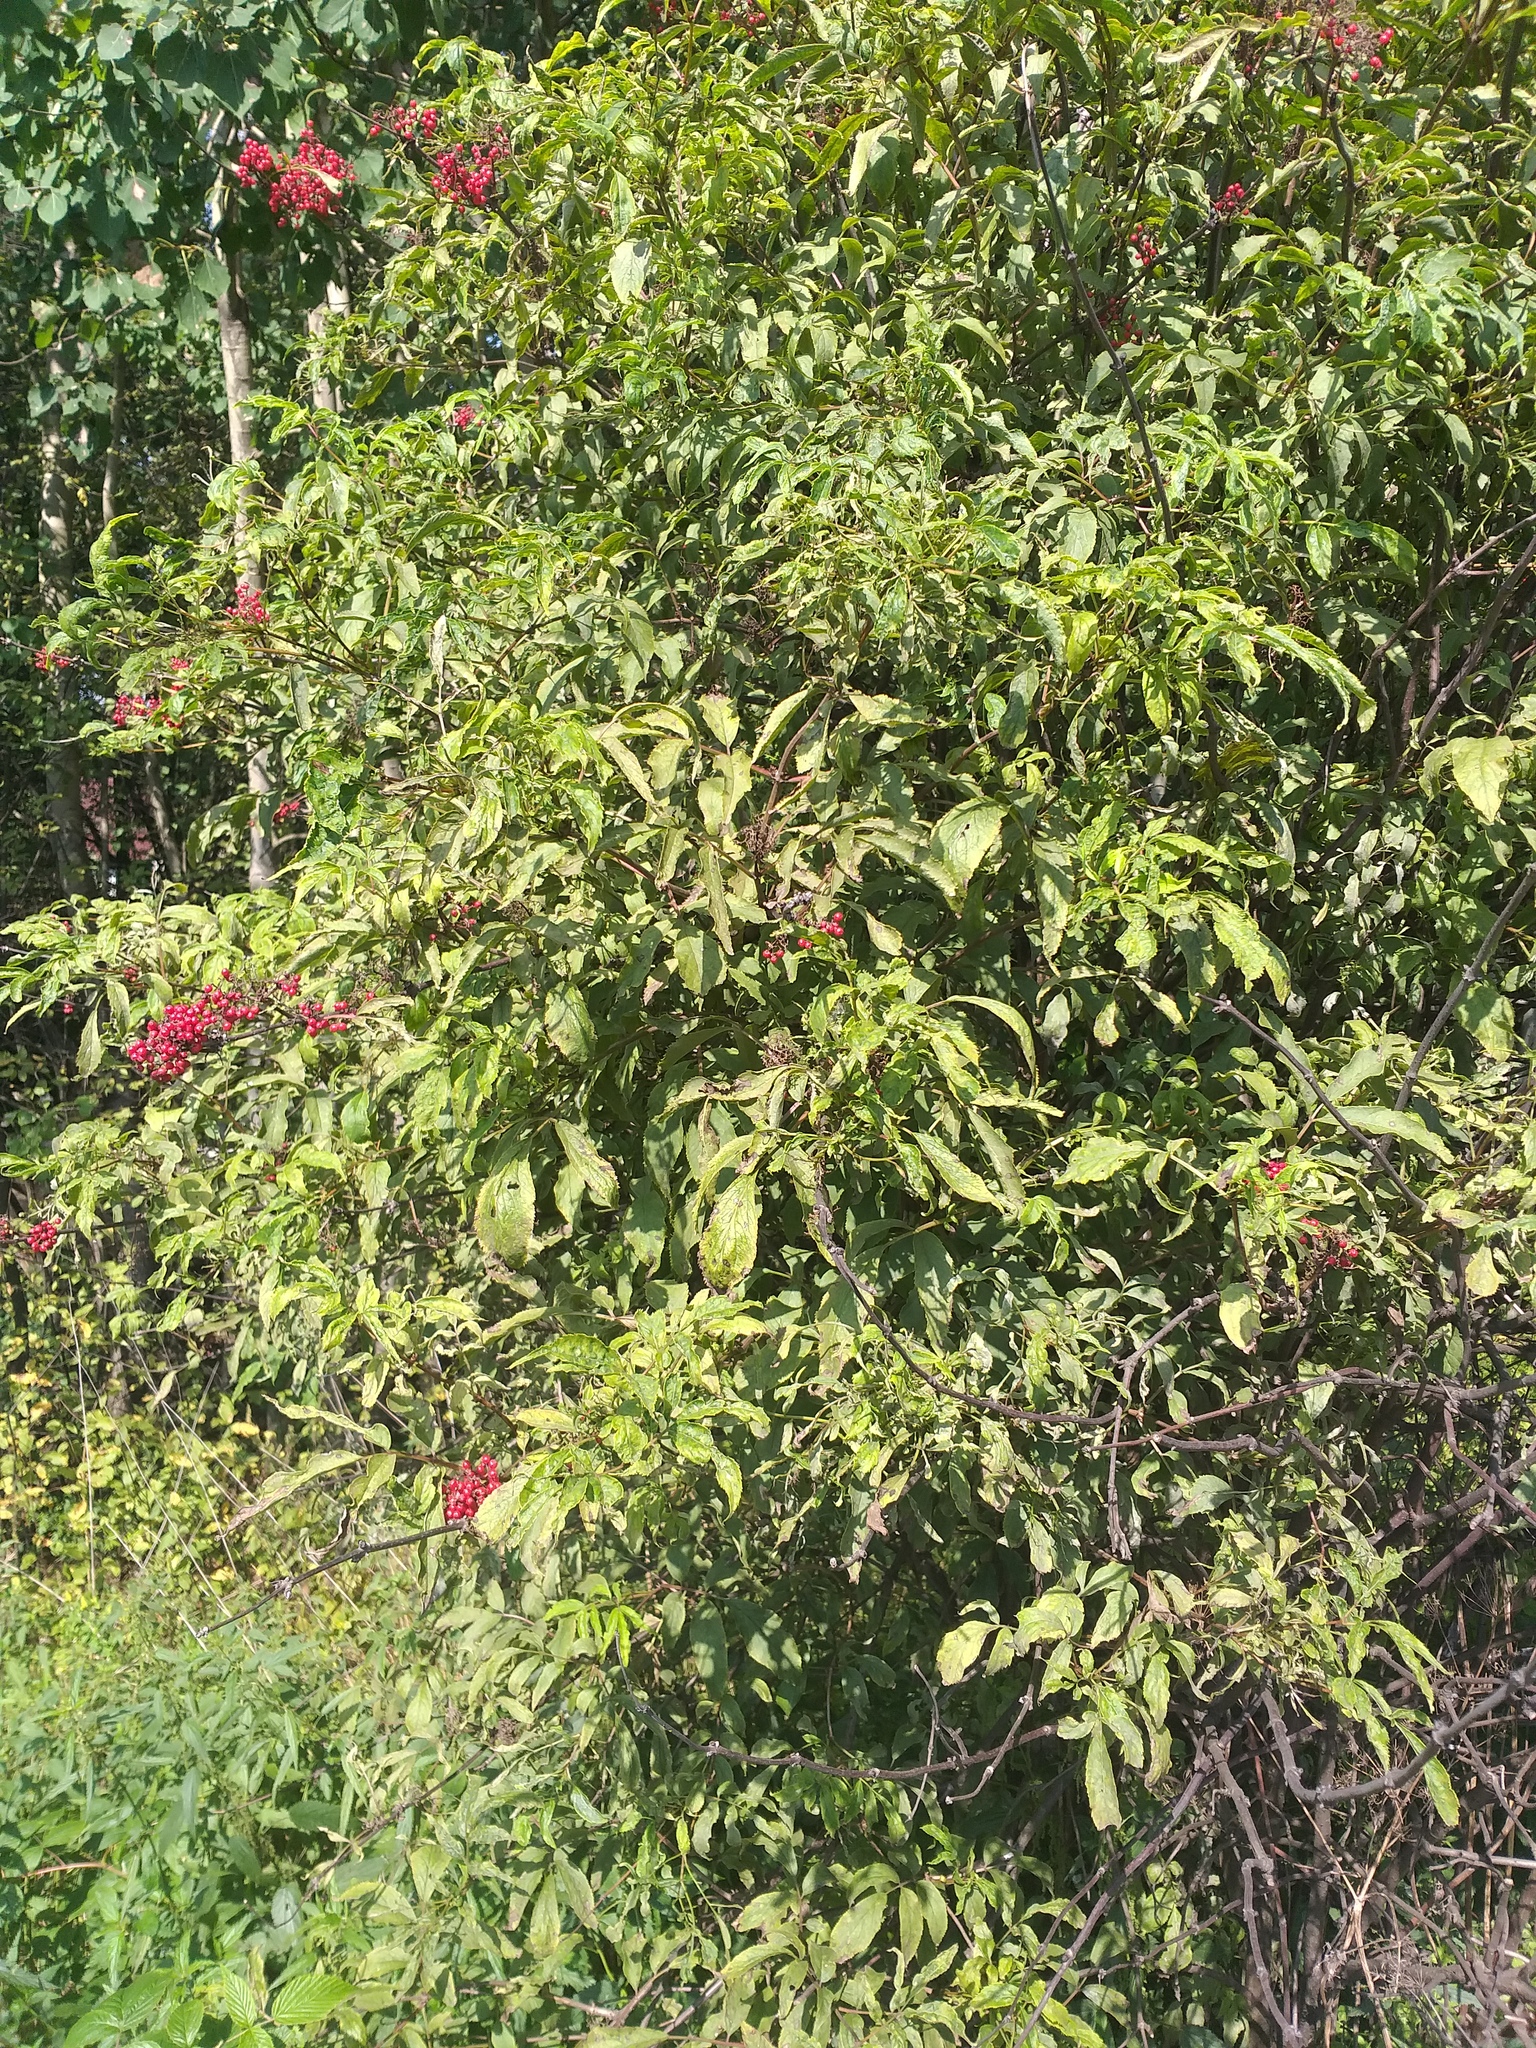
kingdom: Plantae
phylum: Tracheophyta
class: Magnoliopsida
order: Dipsacales
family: Viburnaceae
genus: Sambucus
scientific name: Sambucus racemosa
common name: Red-berried elder
